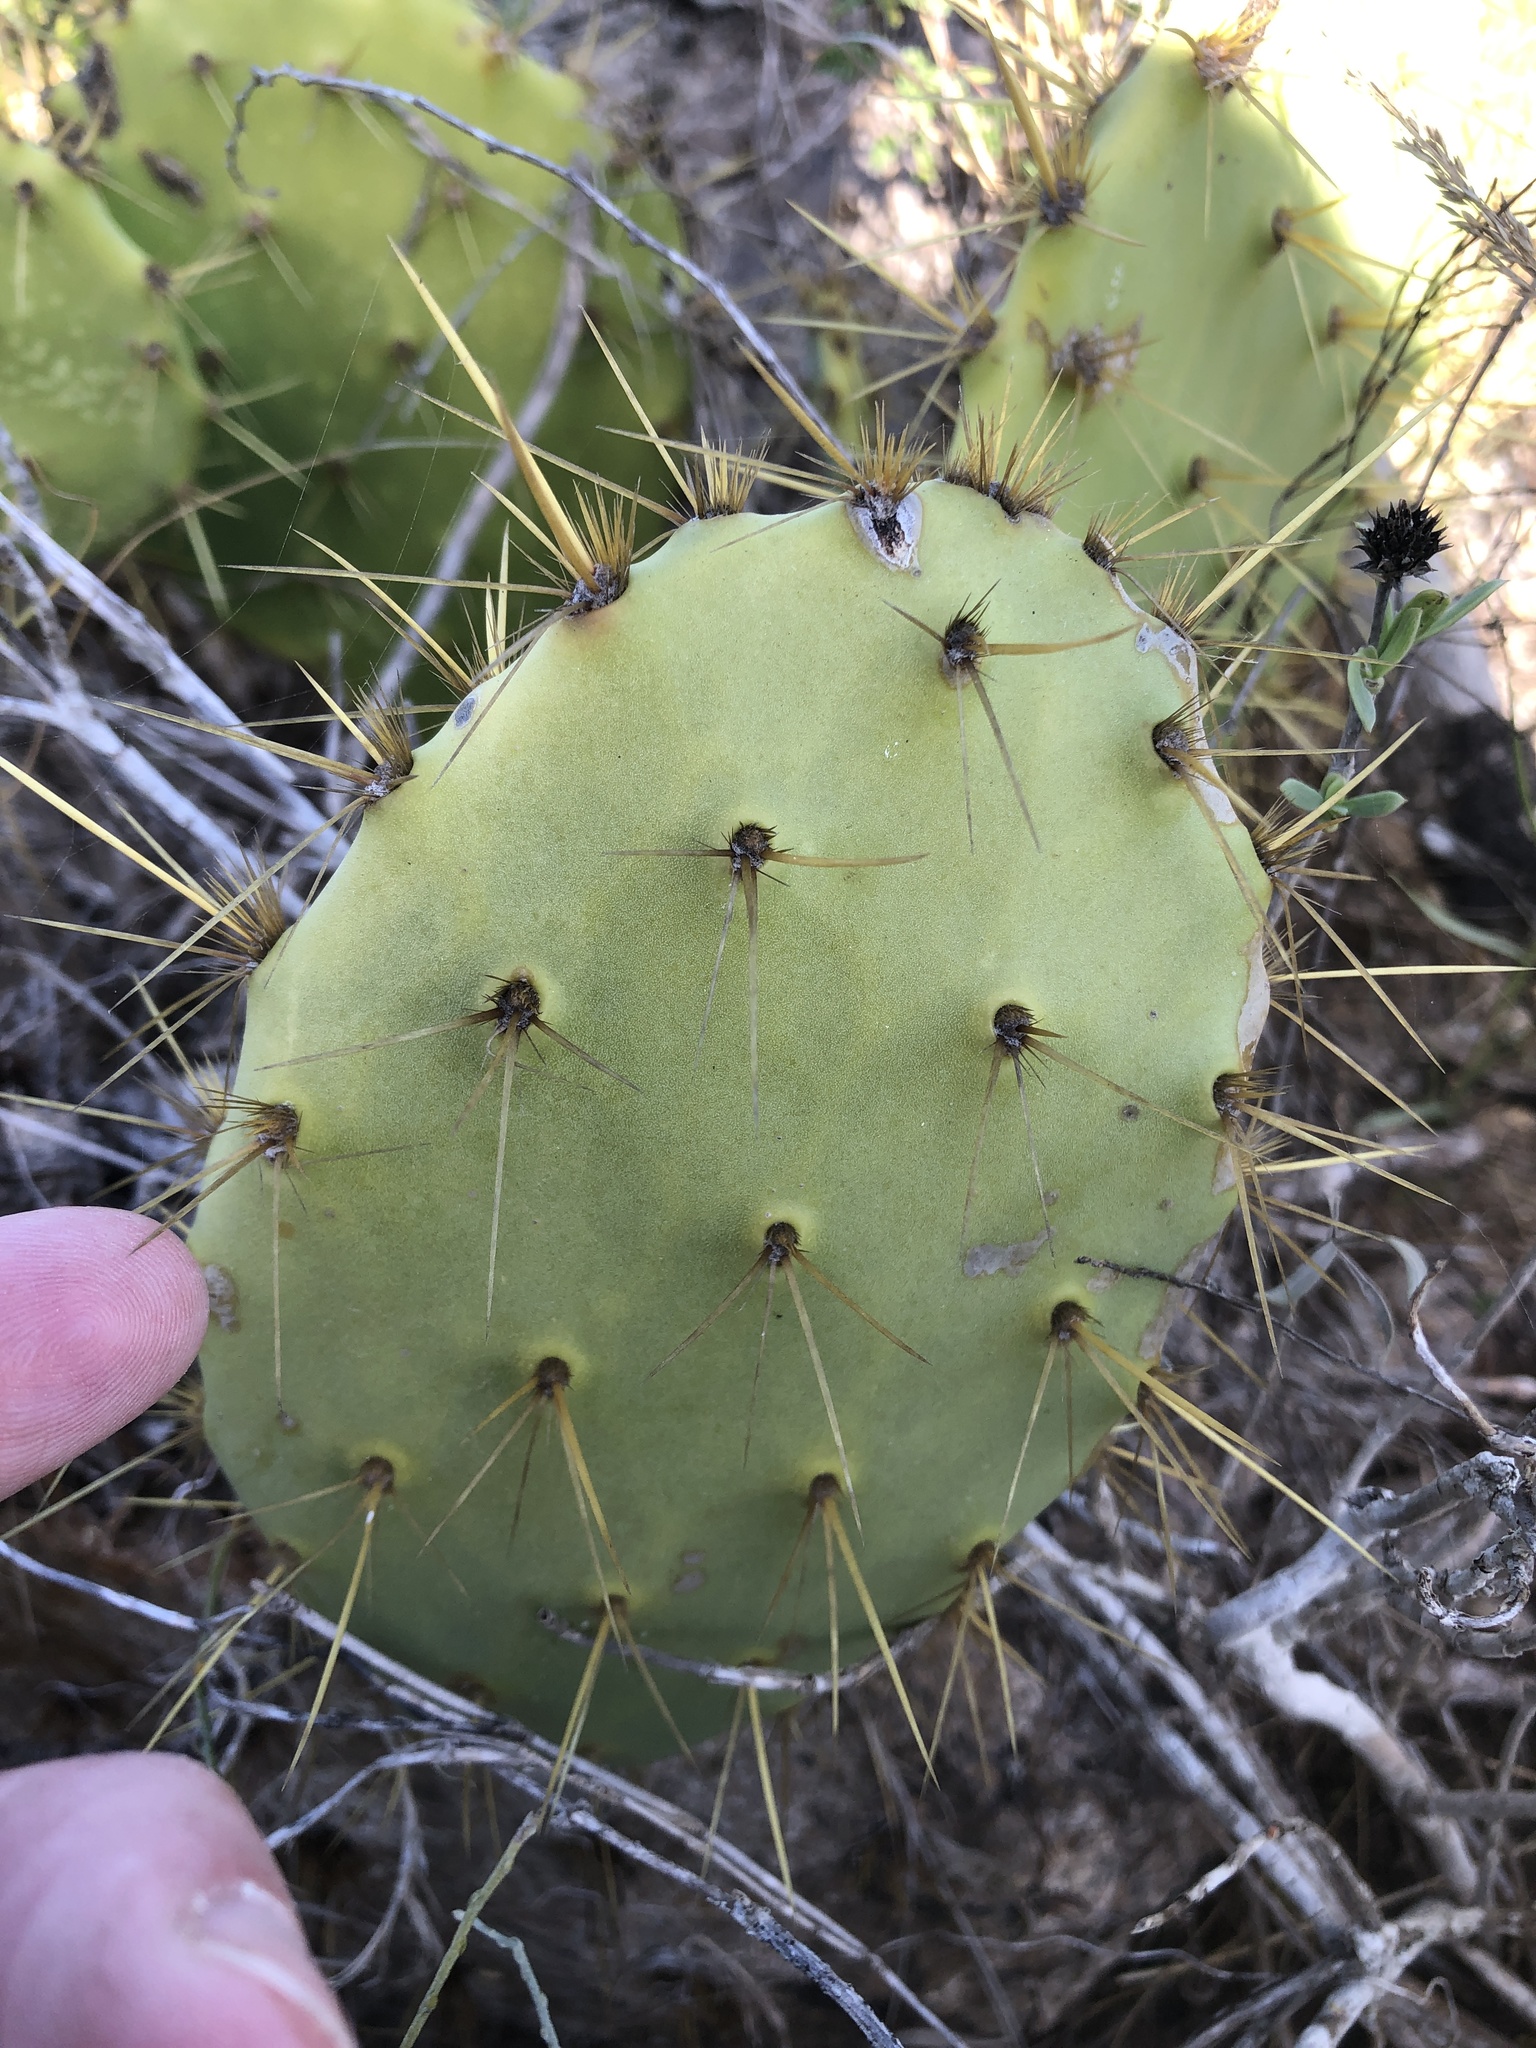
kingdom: Plantae
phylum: Tracheophyta
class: Magnoliopsida
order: Caryophyllales
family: Cactaceae
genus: Opuntia
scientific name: Opuntia alta
